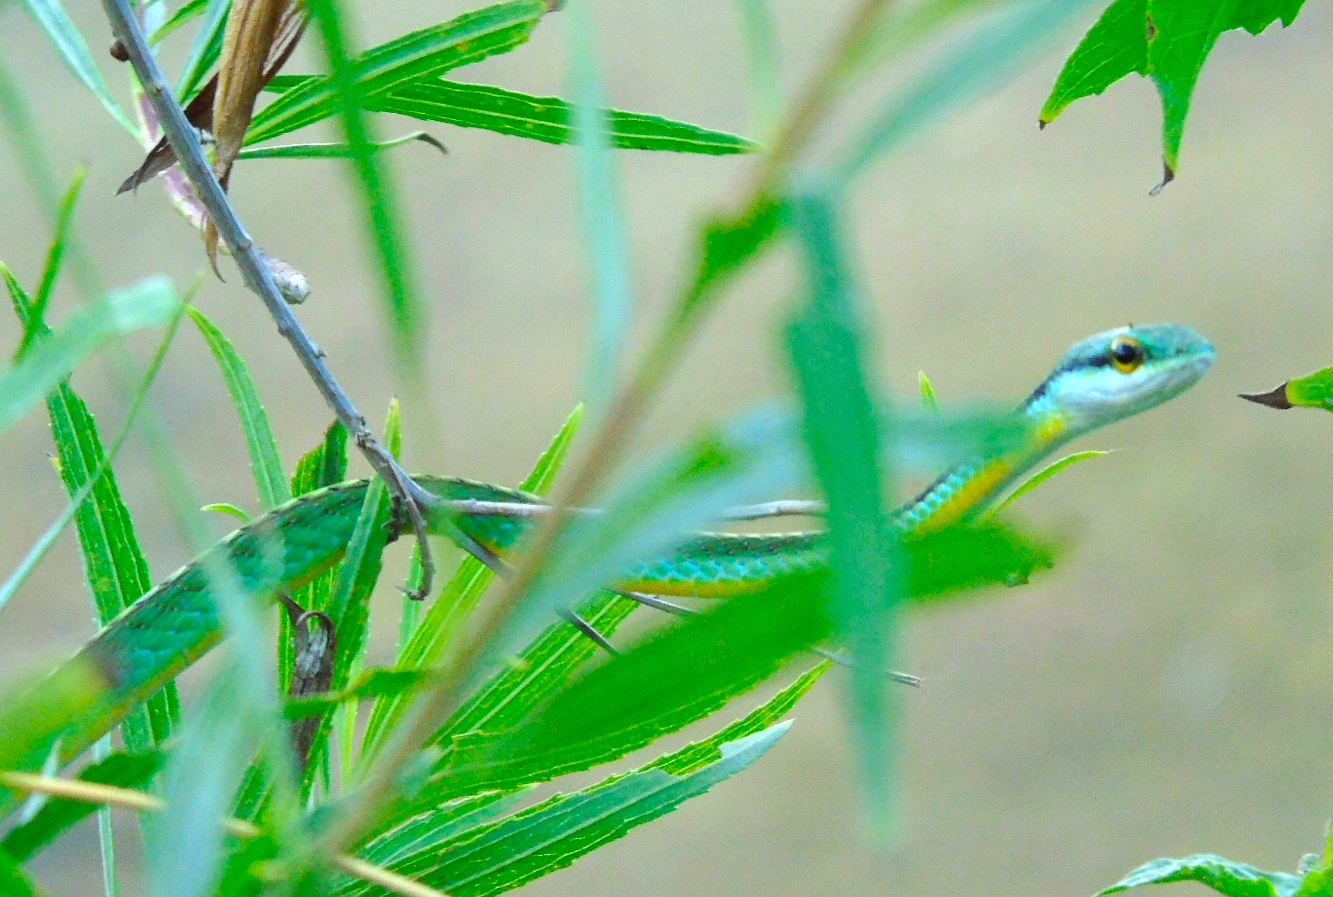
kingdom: Animalia
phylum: Chordata
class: Squamata
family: Colubridae
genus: Leptophis
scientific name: Leptophis diplotropis
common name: Pacific coast parrot snake
